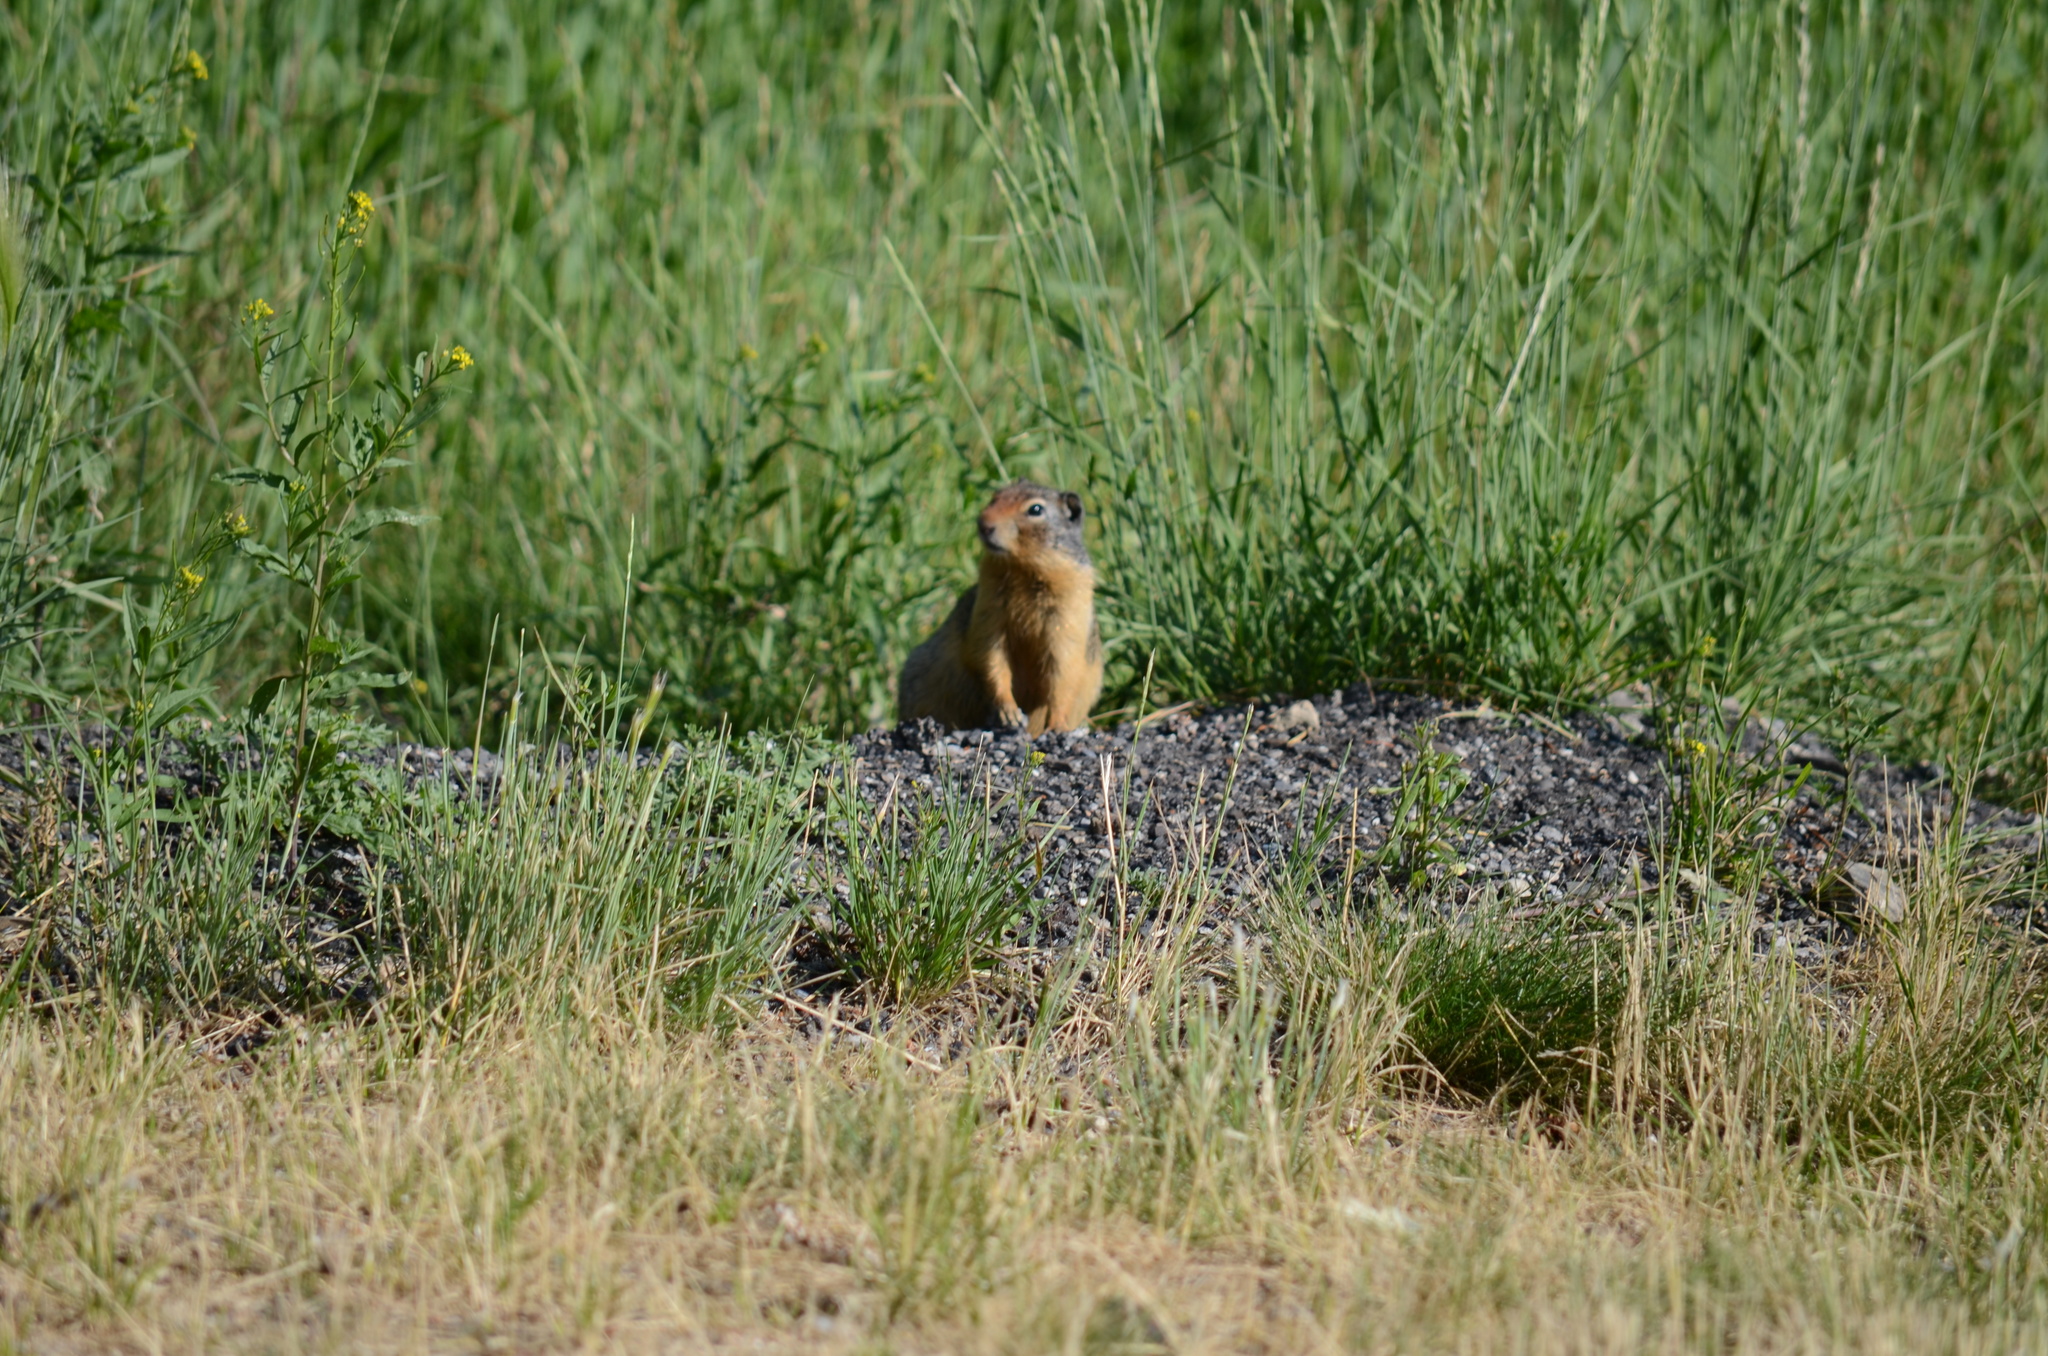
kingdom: Animalia
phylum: Chordata
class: Mammalia
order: Rodentia
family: Sciuridae
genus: Urocitellus
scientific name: Urocitellus columbianus
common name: Columbian ground squirrel
